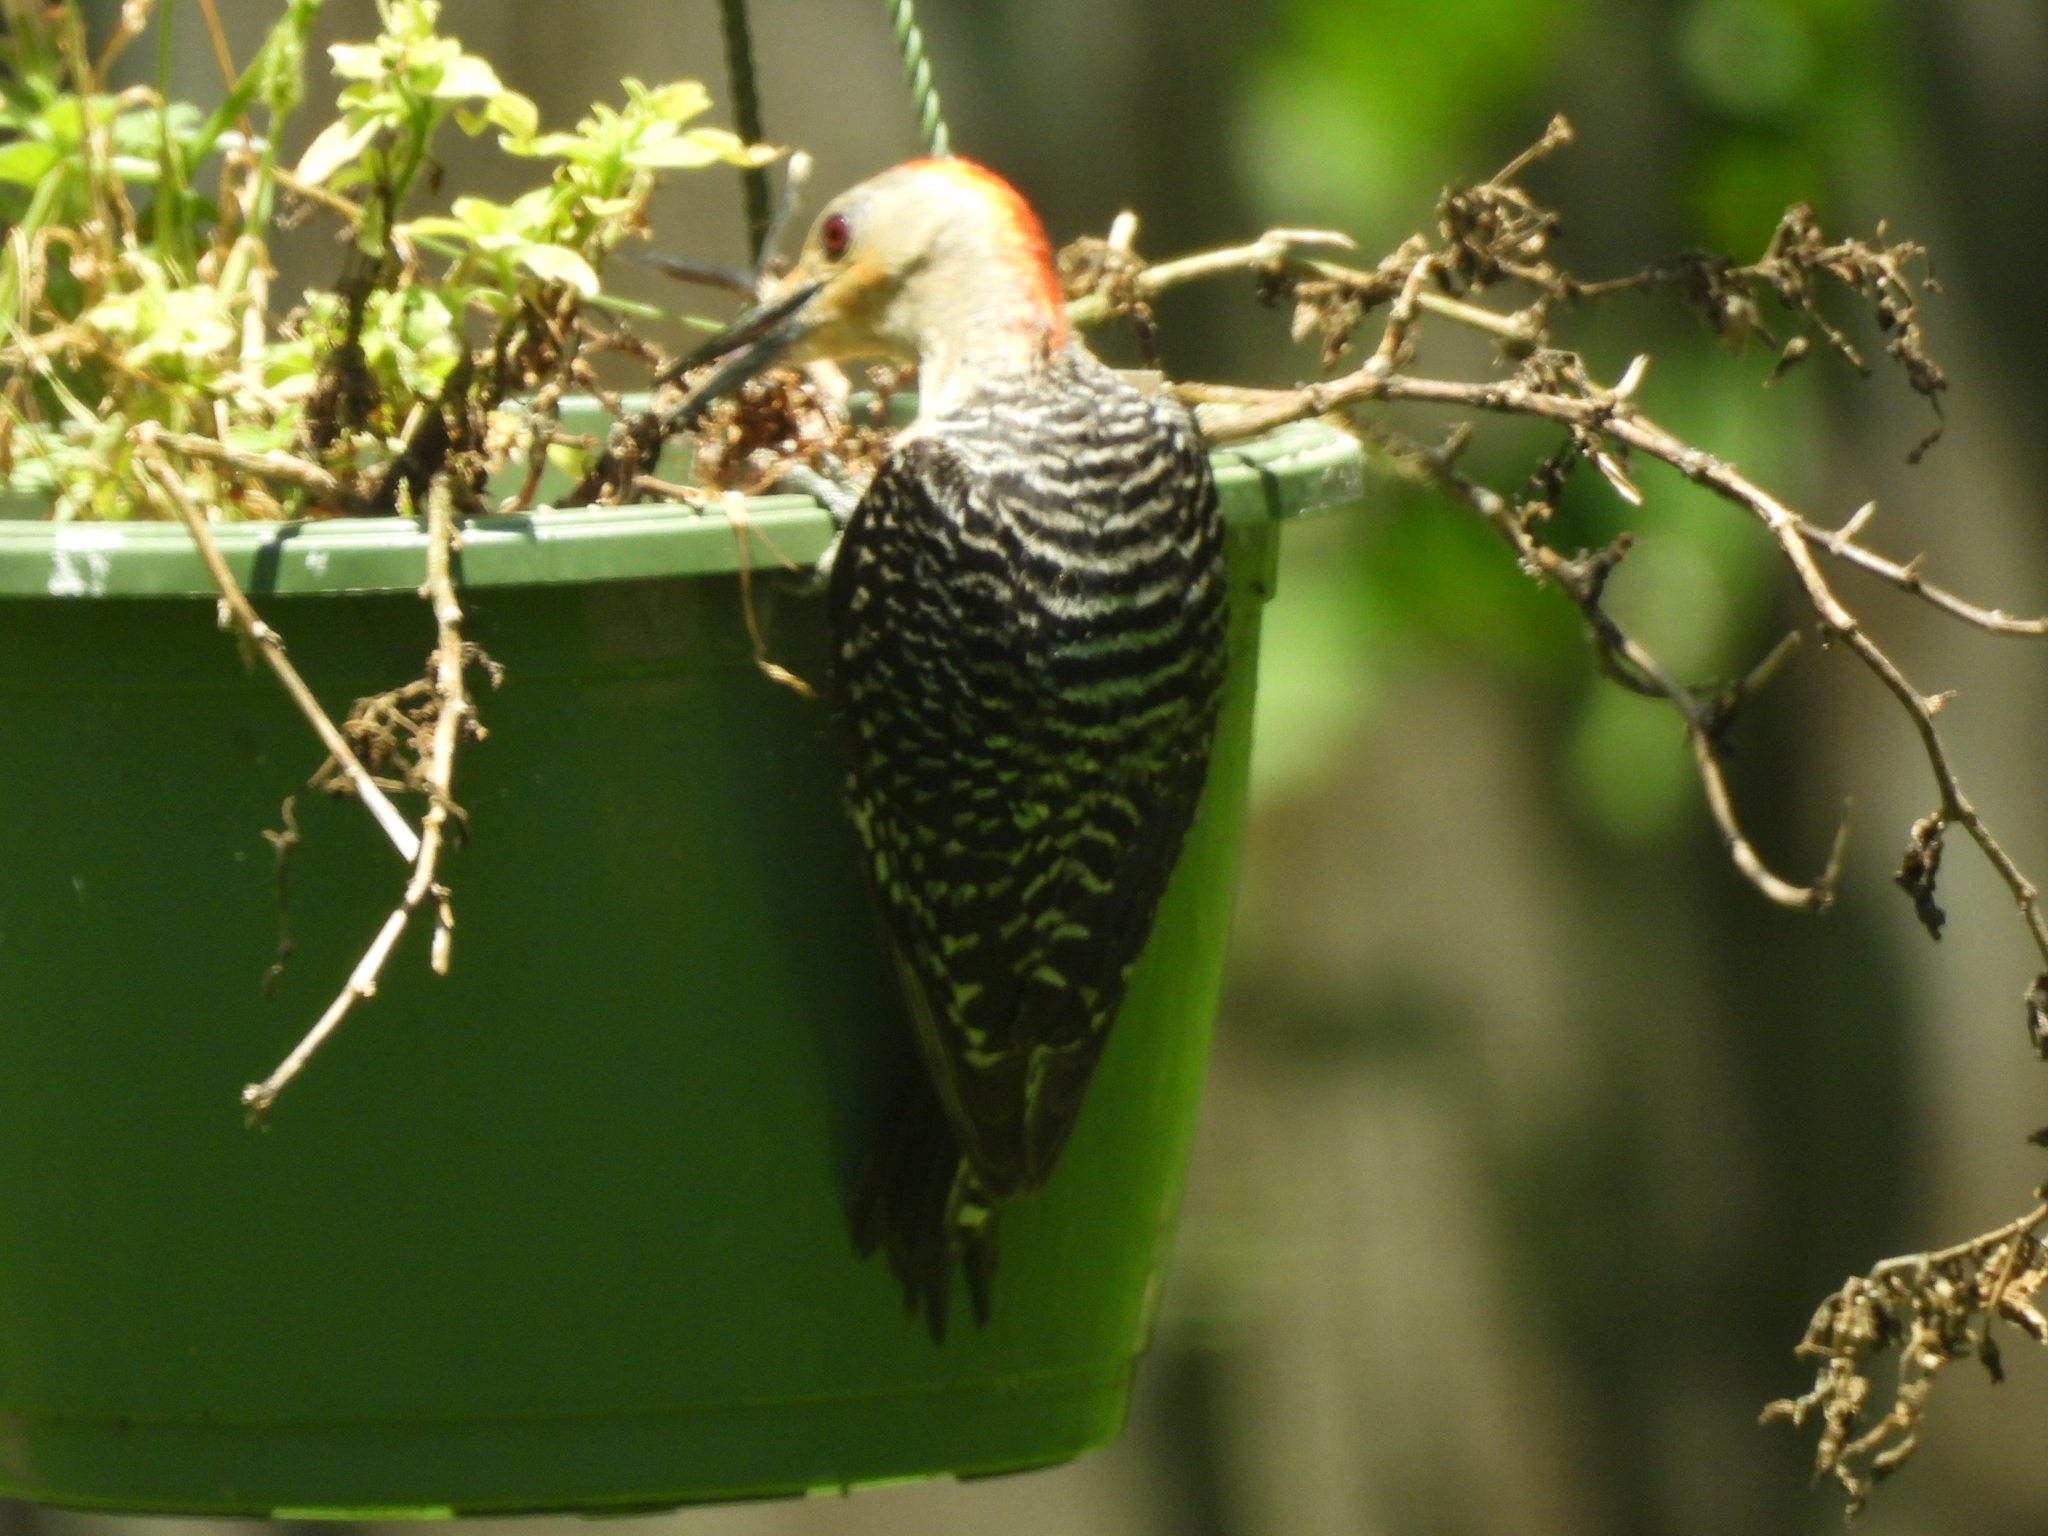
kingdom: Animalia
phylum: Chordata
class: Aves
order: Piciformes
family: Picidae
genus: Melanerpes
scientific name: Melanerpes carolinus
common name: Red-bellied woodpecker
